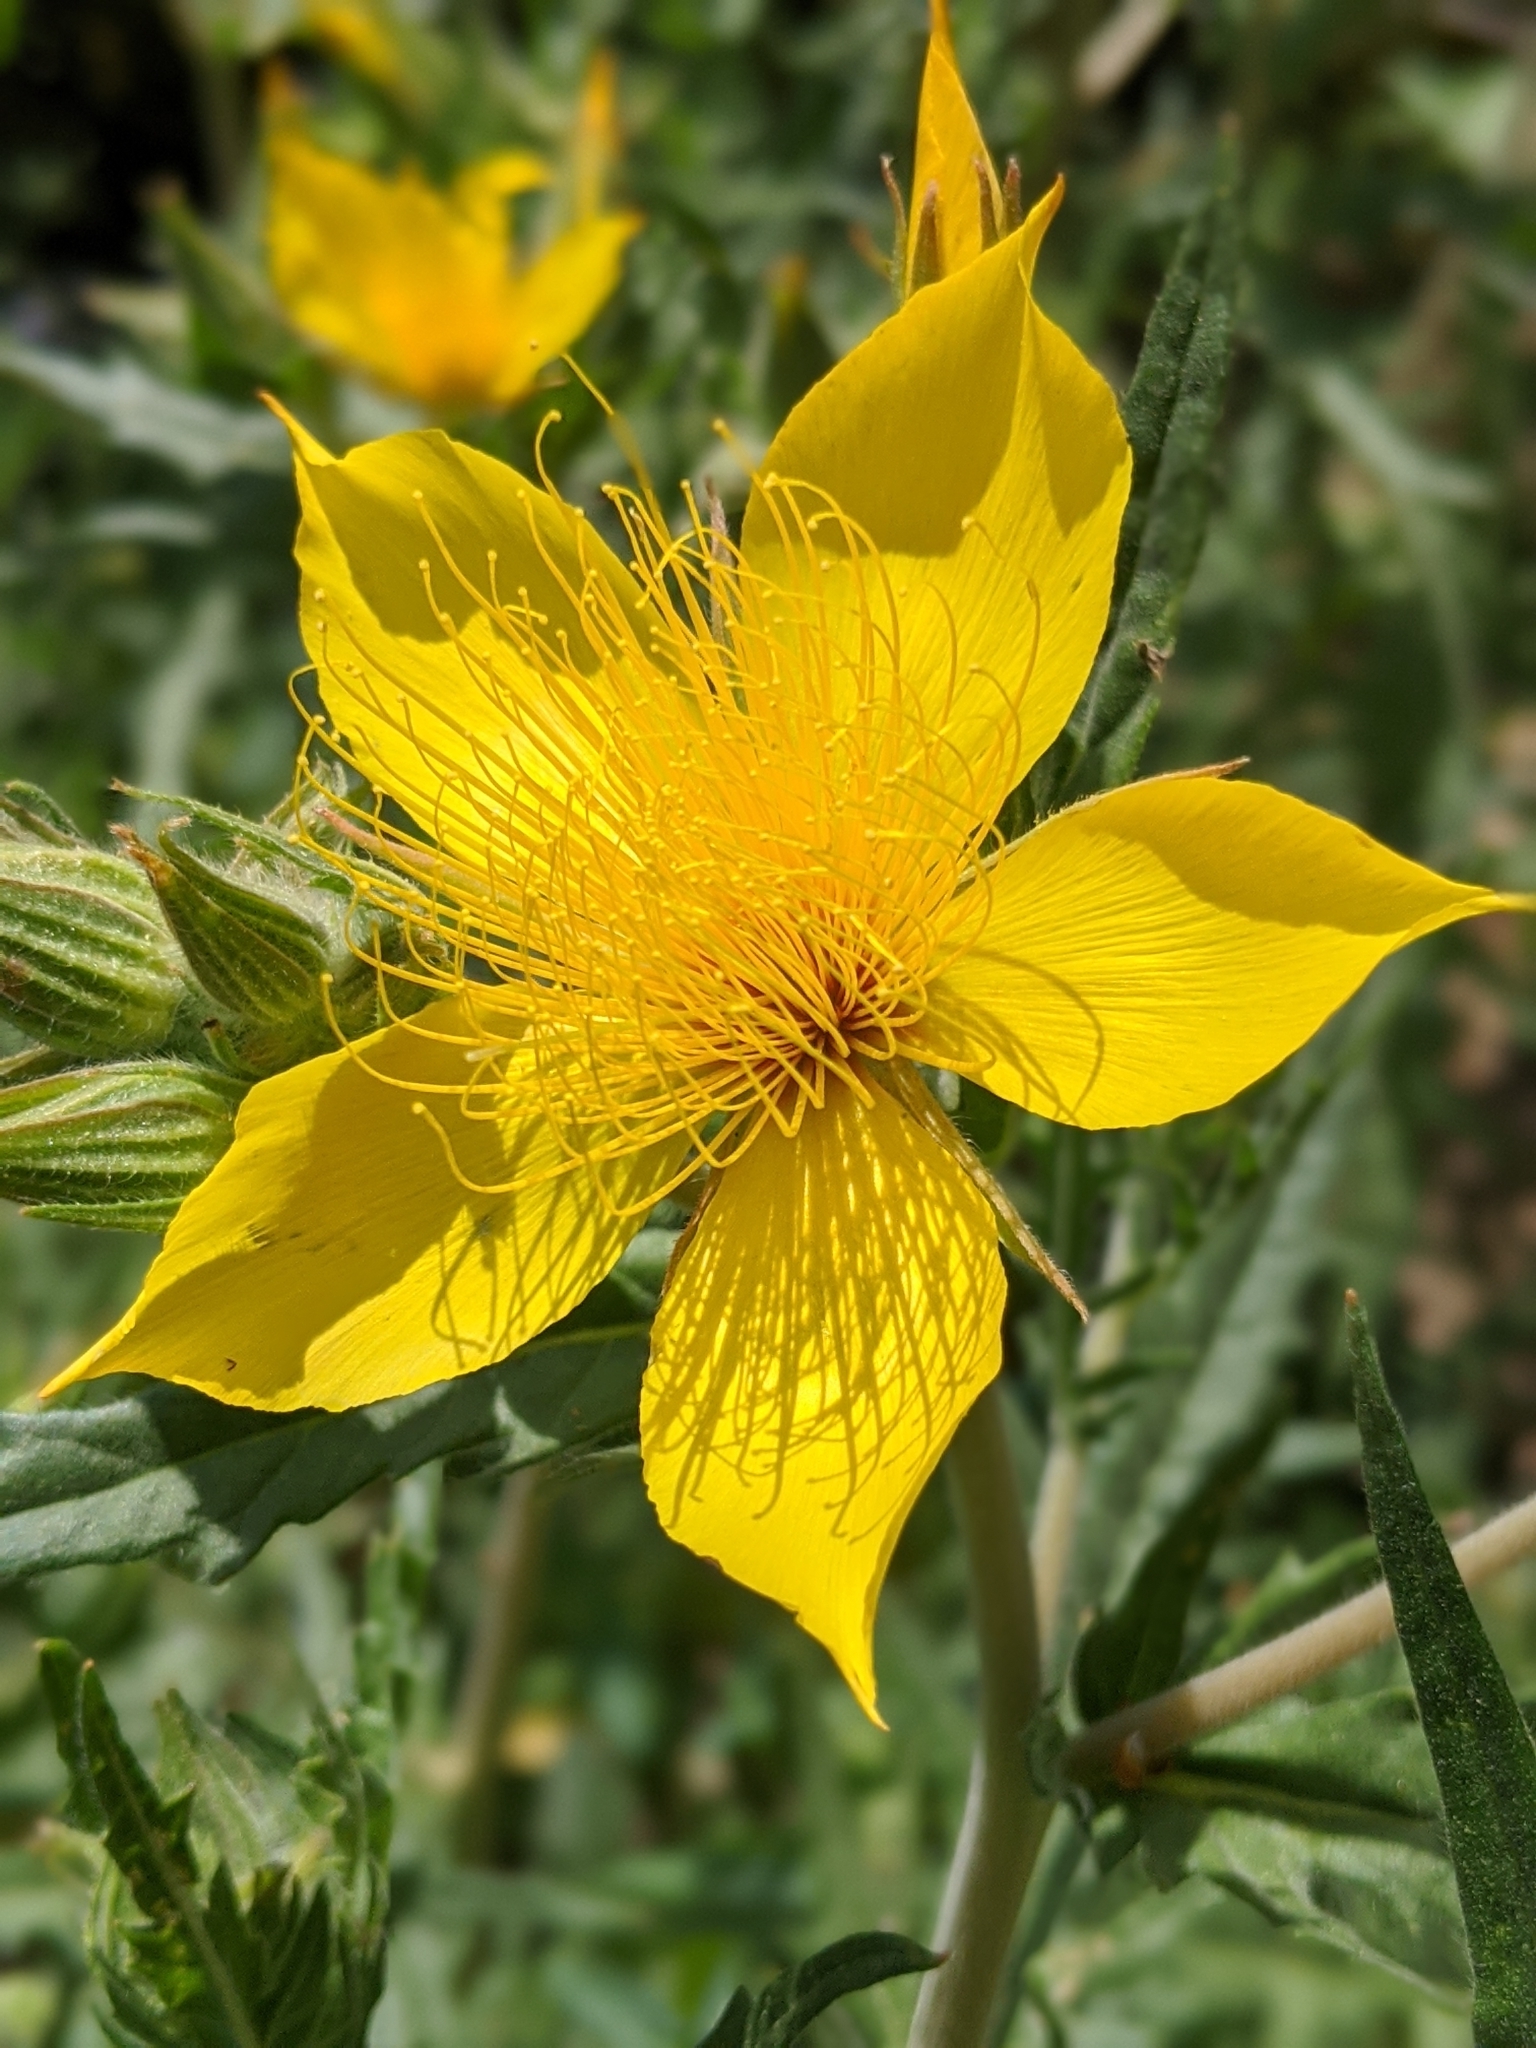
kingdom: Plantae
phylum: Tracheophyta
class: Magnoliopsida
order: Cornales
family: Loasaceae
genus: Mentzelia
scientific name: Mentzelia crocea
